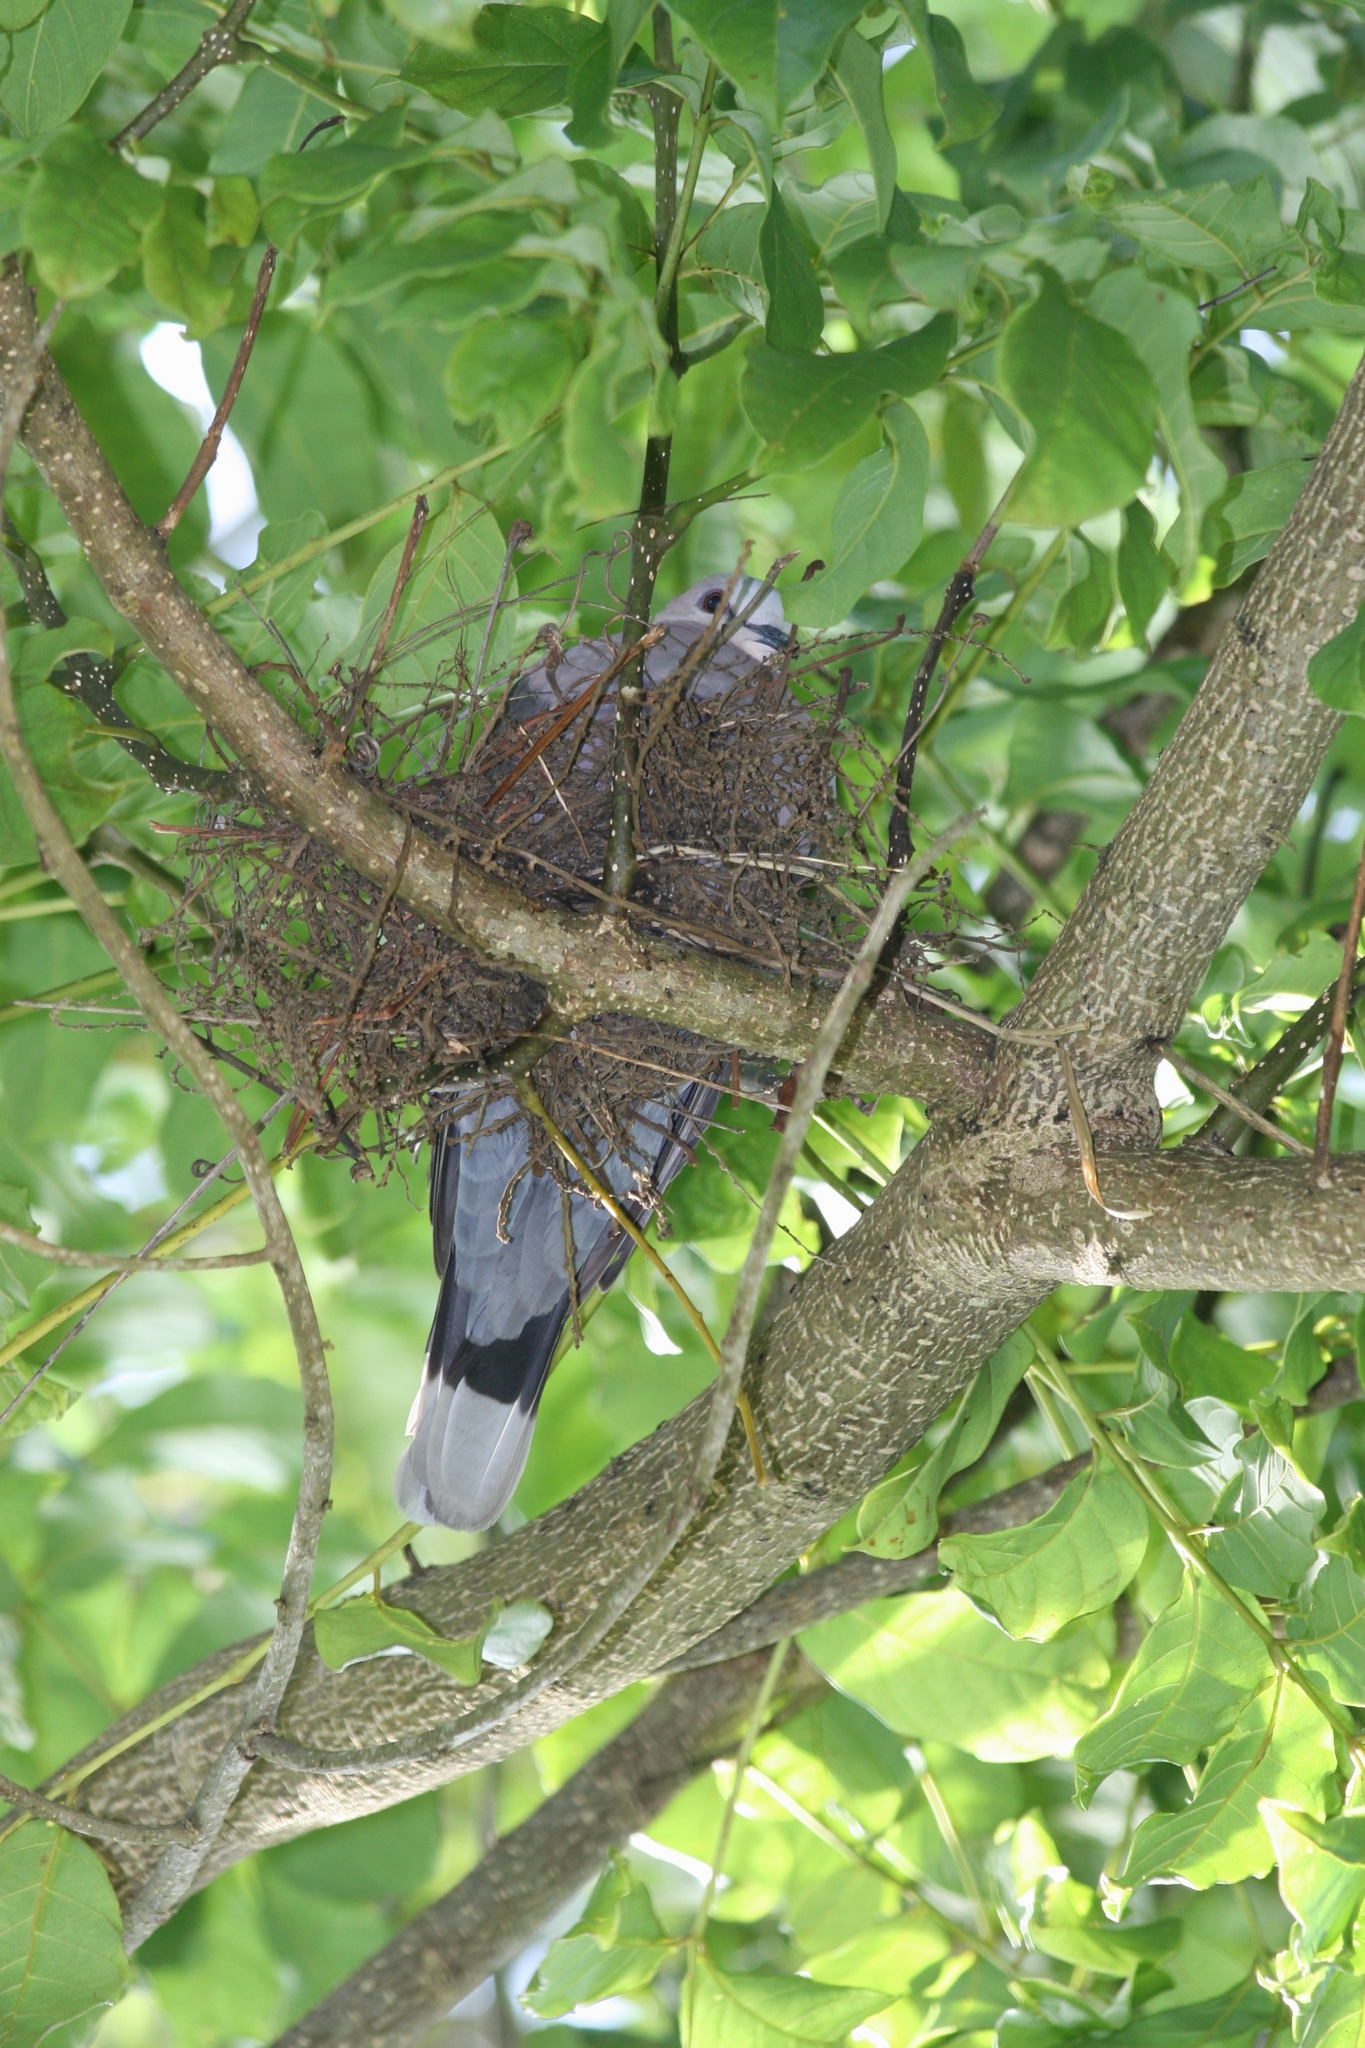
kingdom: Animalia
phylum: Chordata
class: Aves
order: Columbiformes
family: Columbidae
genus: Streptopelia
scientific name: Streptopelia semitorquata
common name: Red-eyed dove
